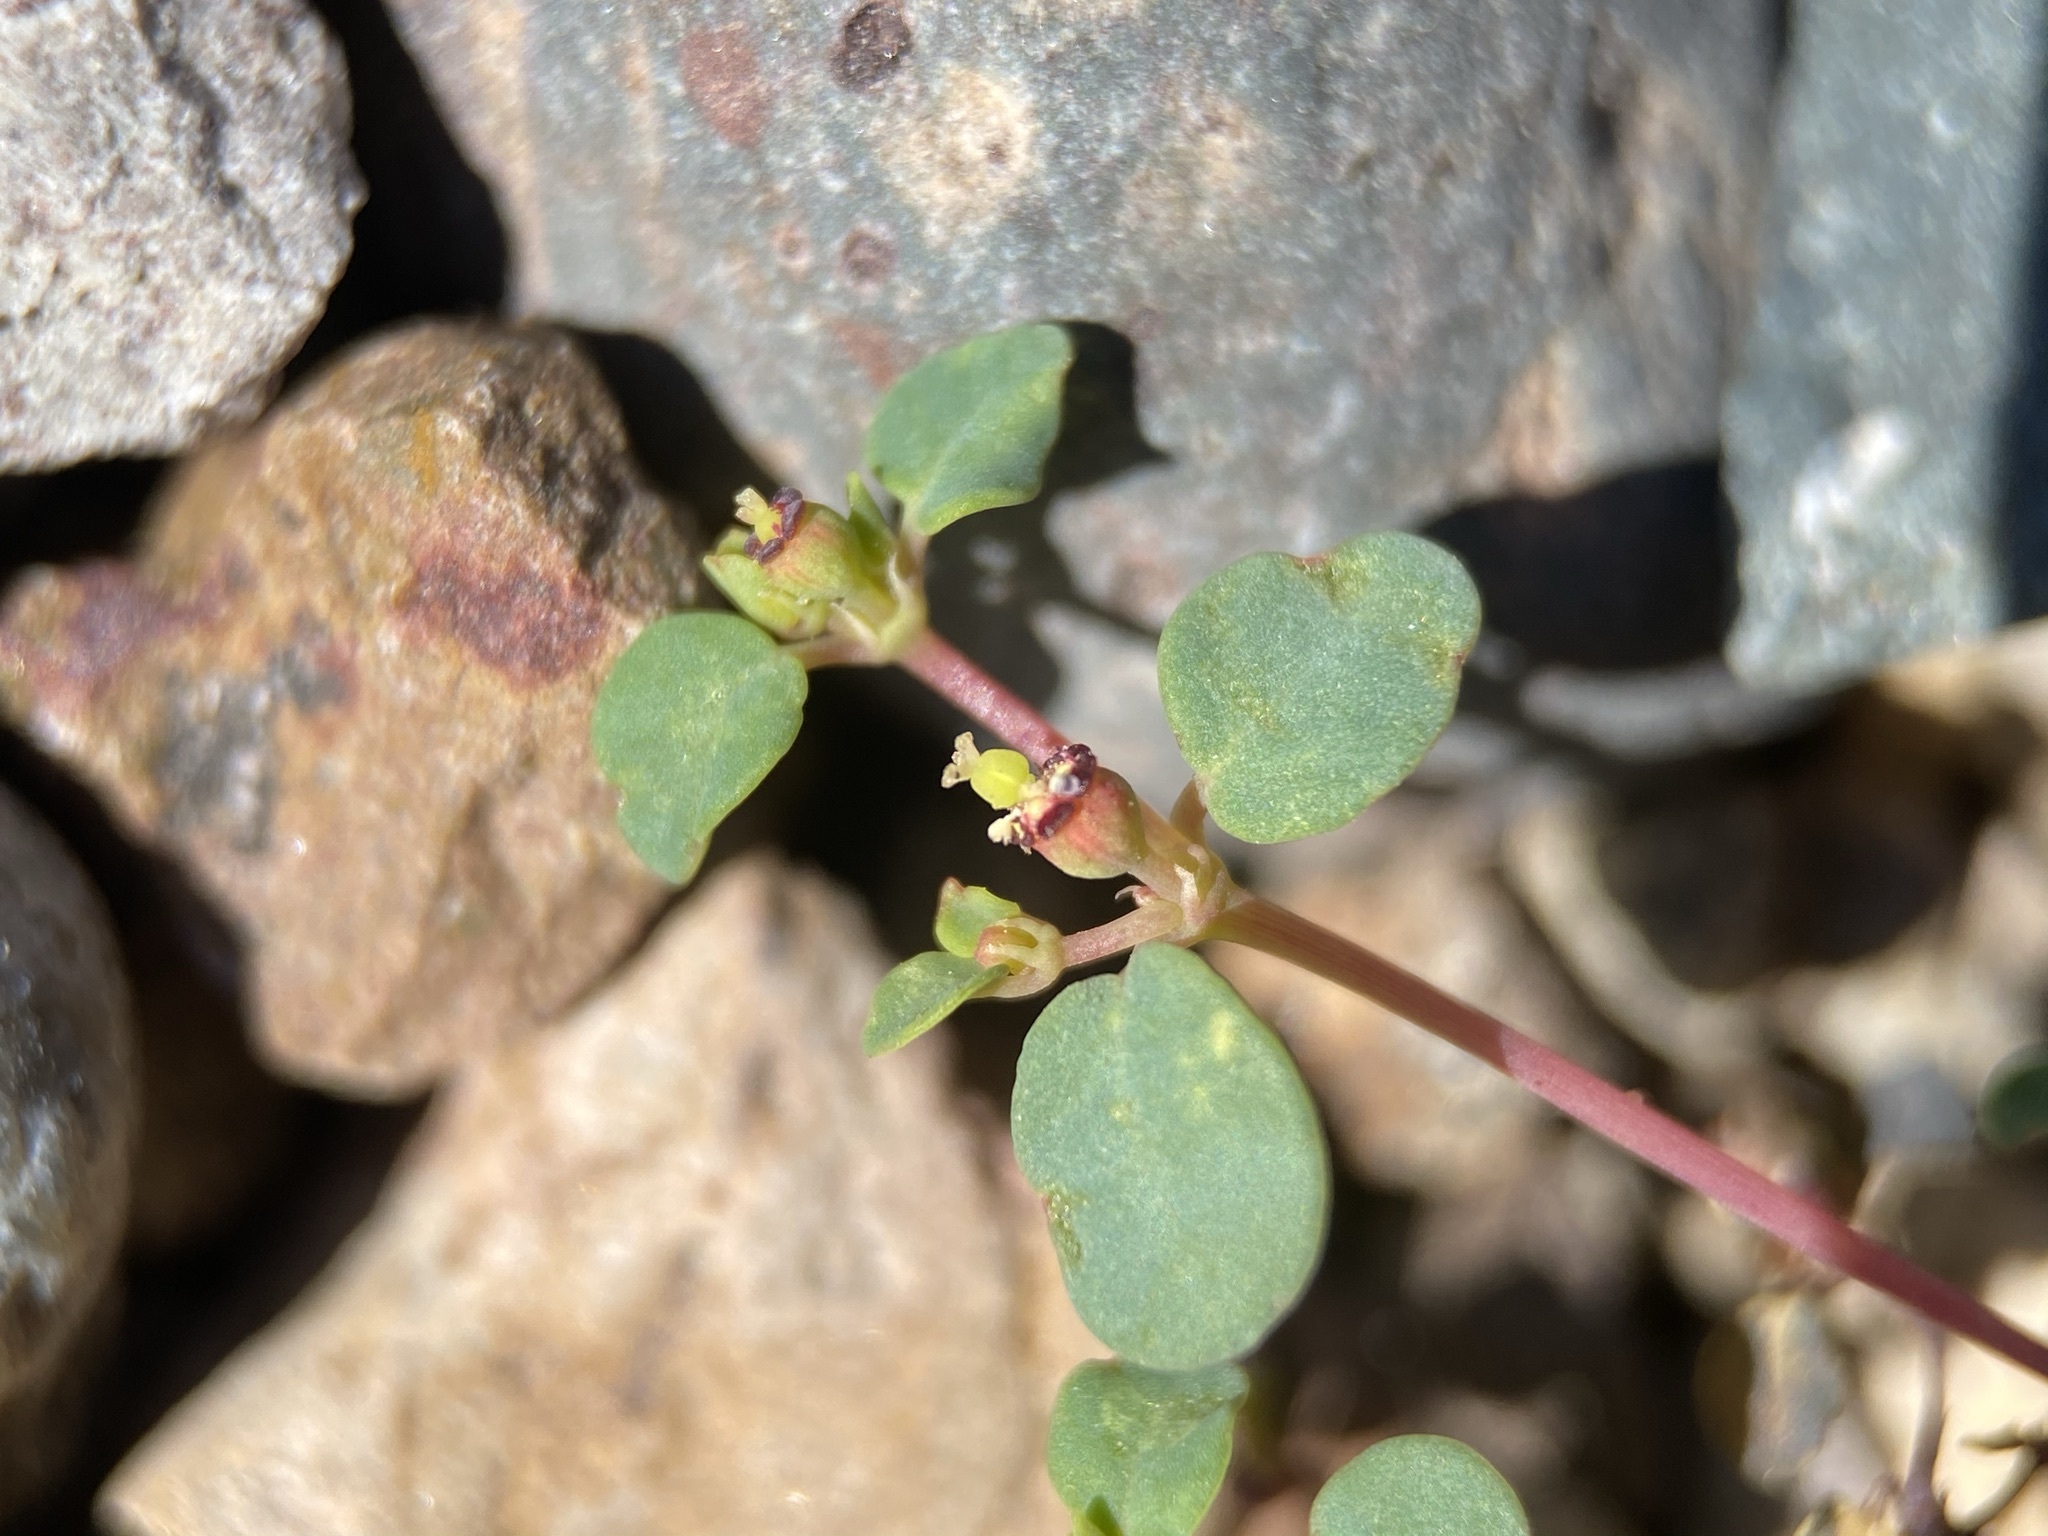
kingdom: Plantae
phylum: Tracheophyta
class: Magnoliopsida
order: Malpighiales
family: Euphorbiaceae
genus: Euphorbia
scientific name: Euphorbia simulans
